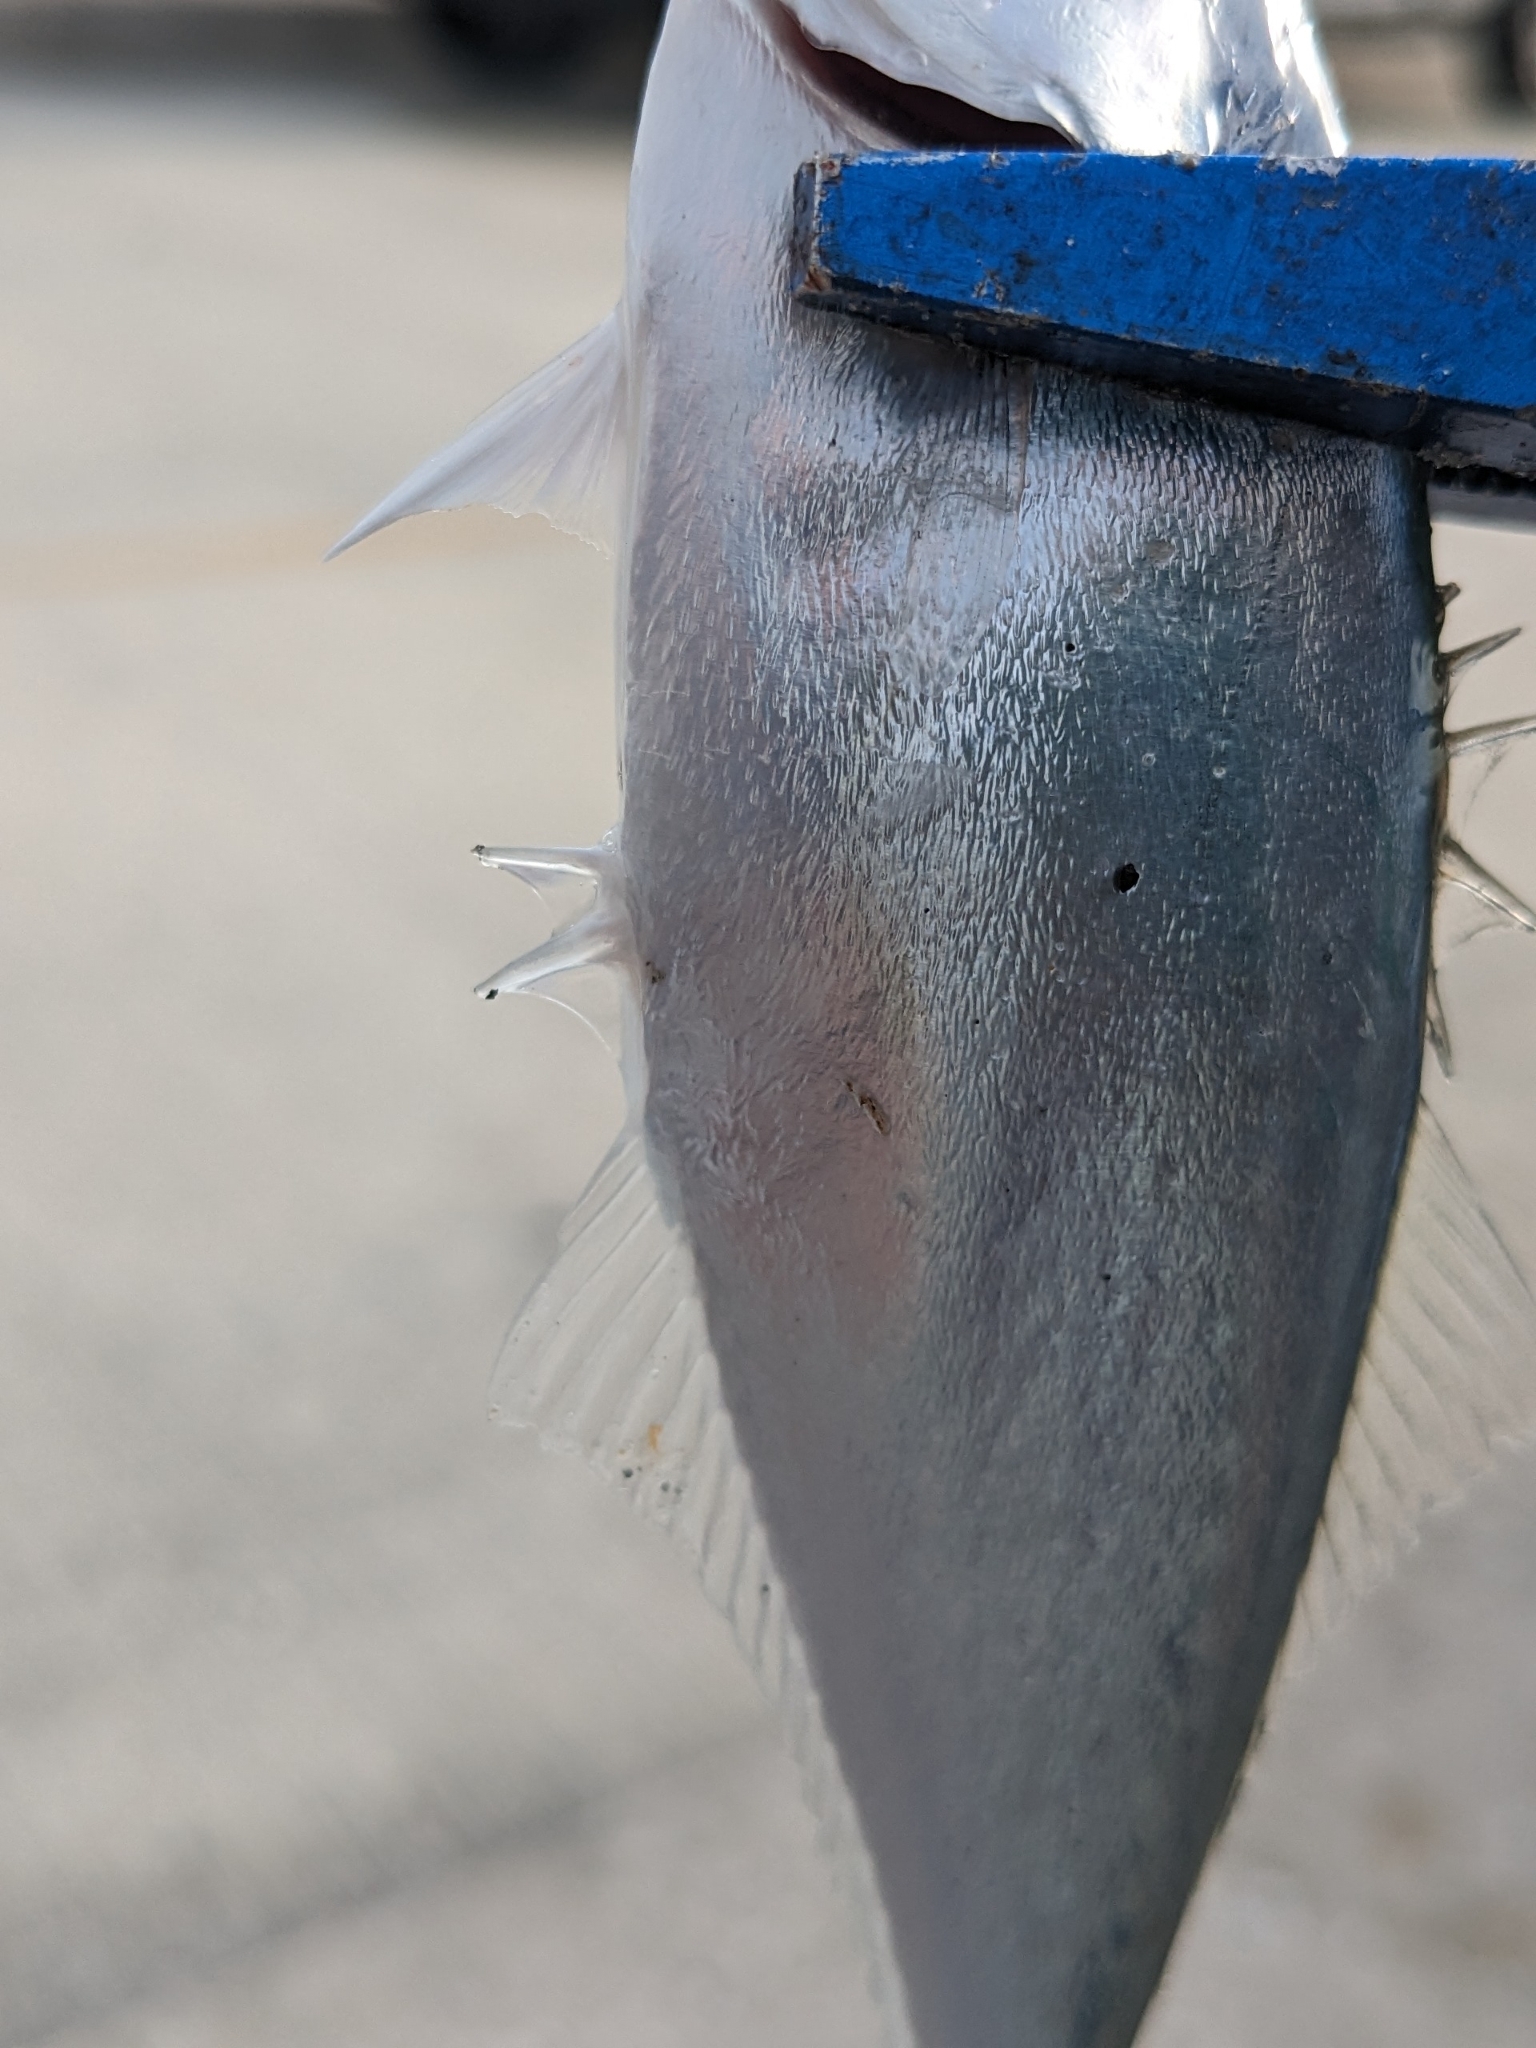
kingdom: Animalia
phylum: Chordata
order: Perciformes
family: Carangidae
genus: Oligoplites
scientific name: Oligoplites saurus
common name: Leatherjacket
